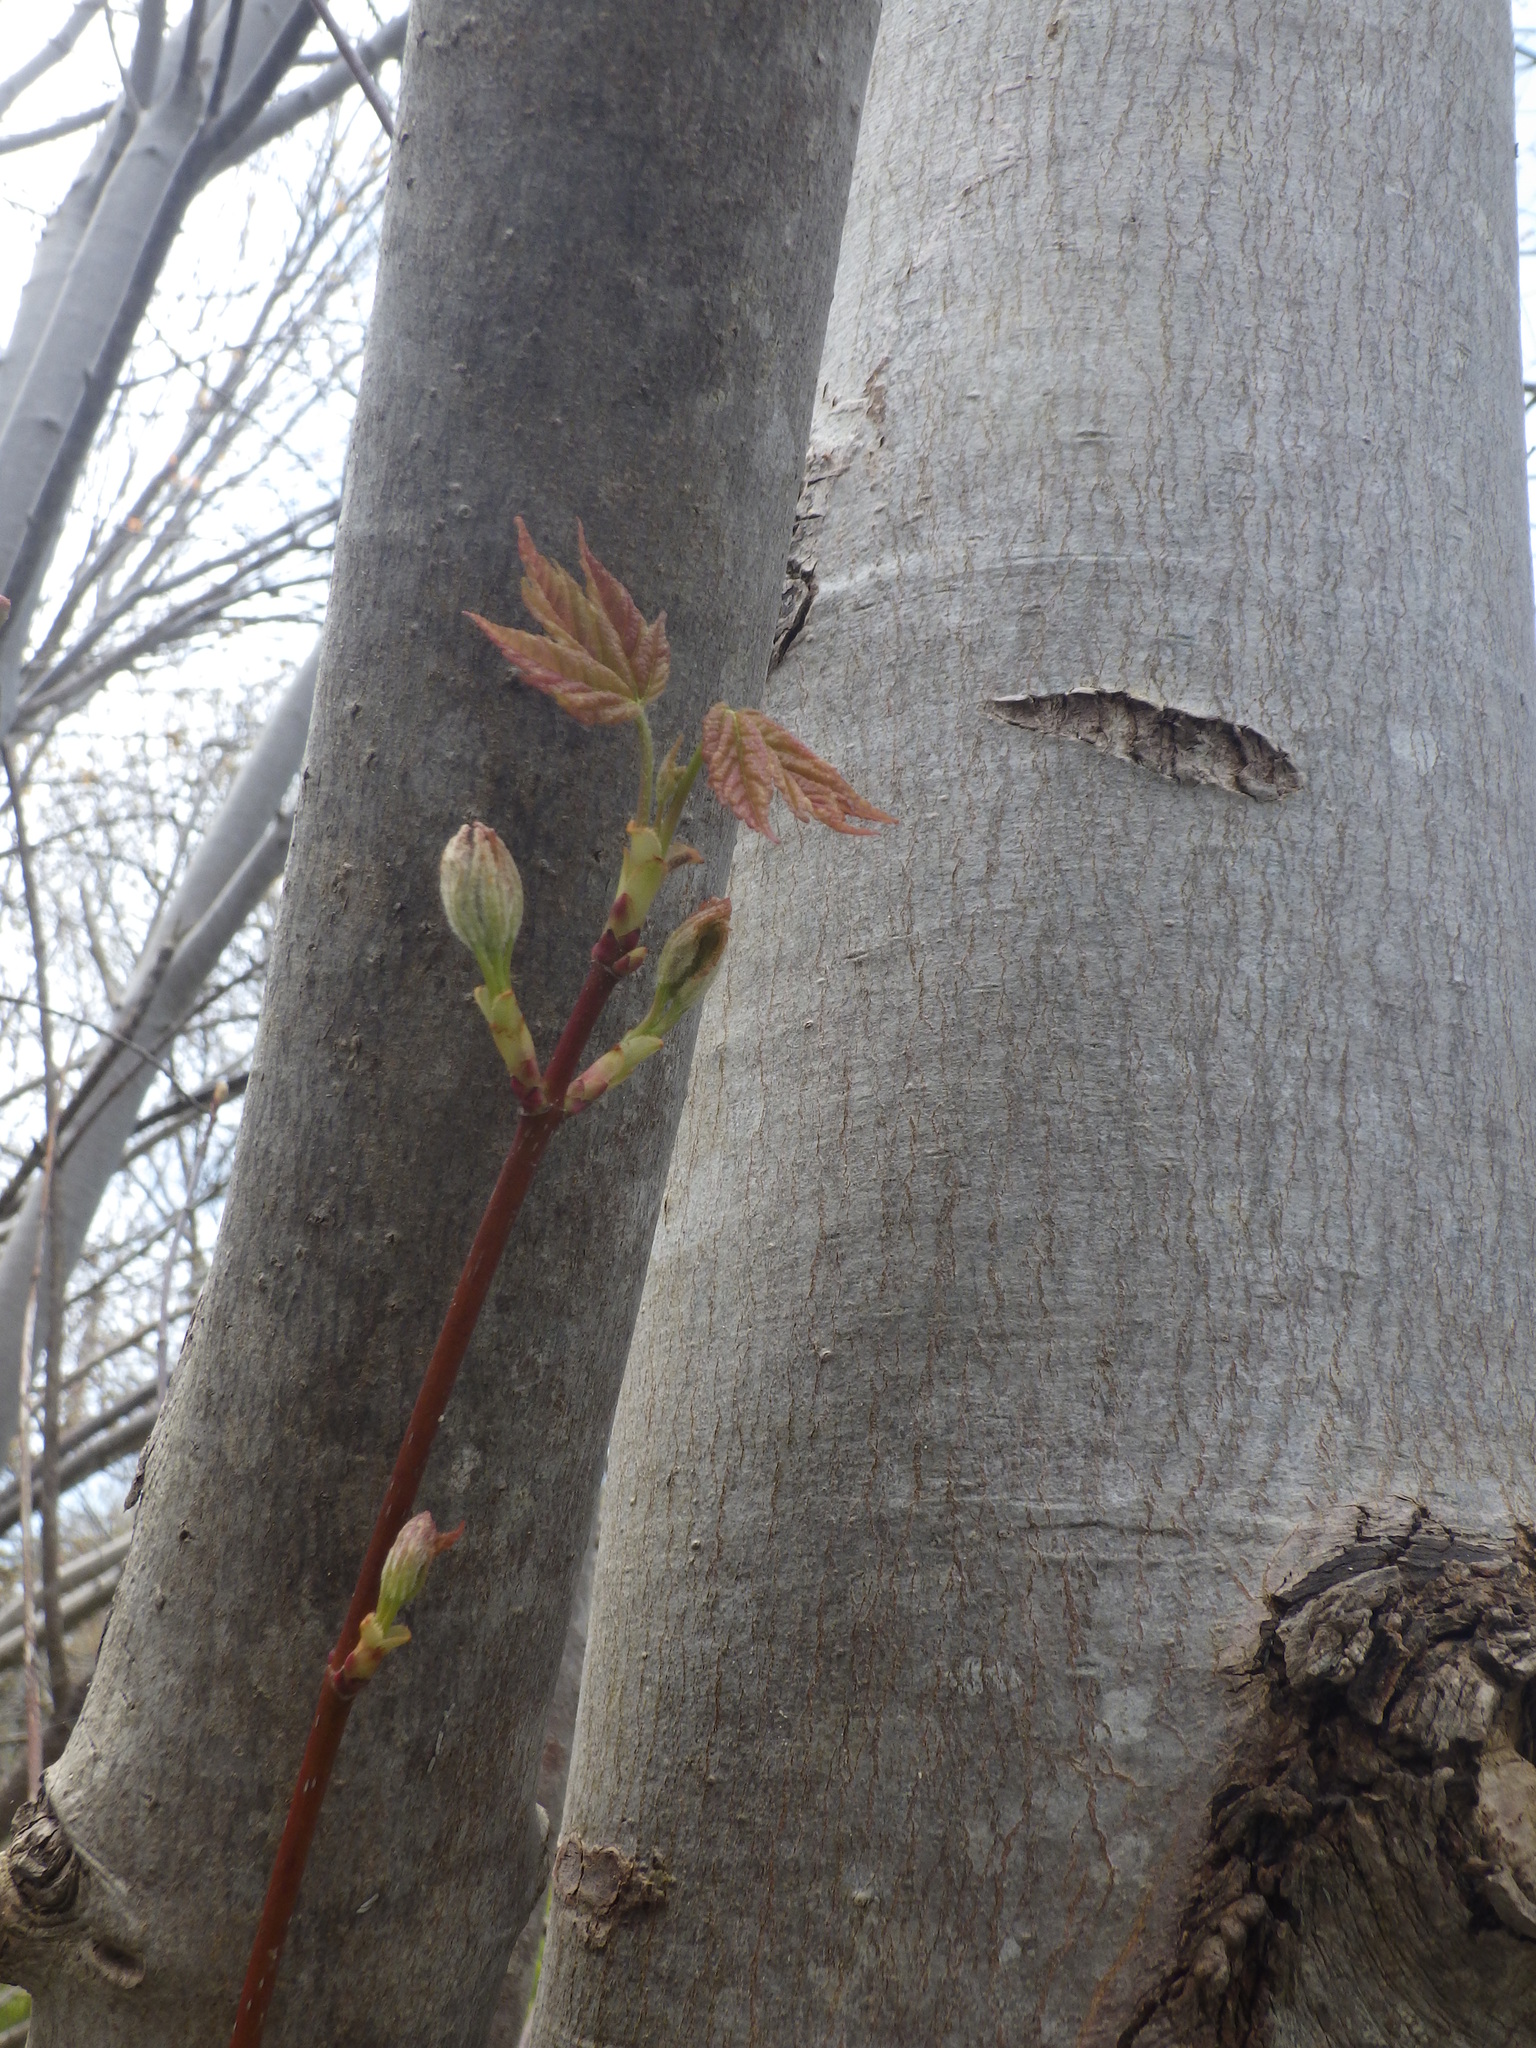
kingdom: Plantae
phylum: Tracheophyta
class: Magnoliopsida
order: Sapindales
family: Sapindaceae
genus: Acer
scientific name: Acer rubrum
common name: Red maple
